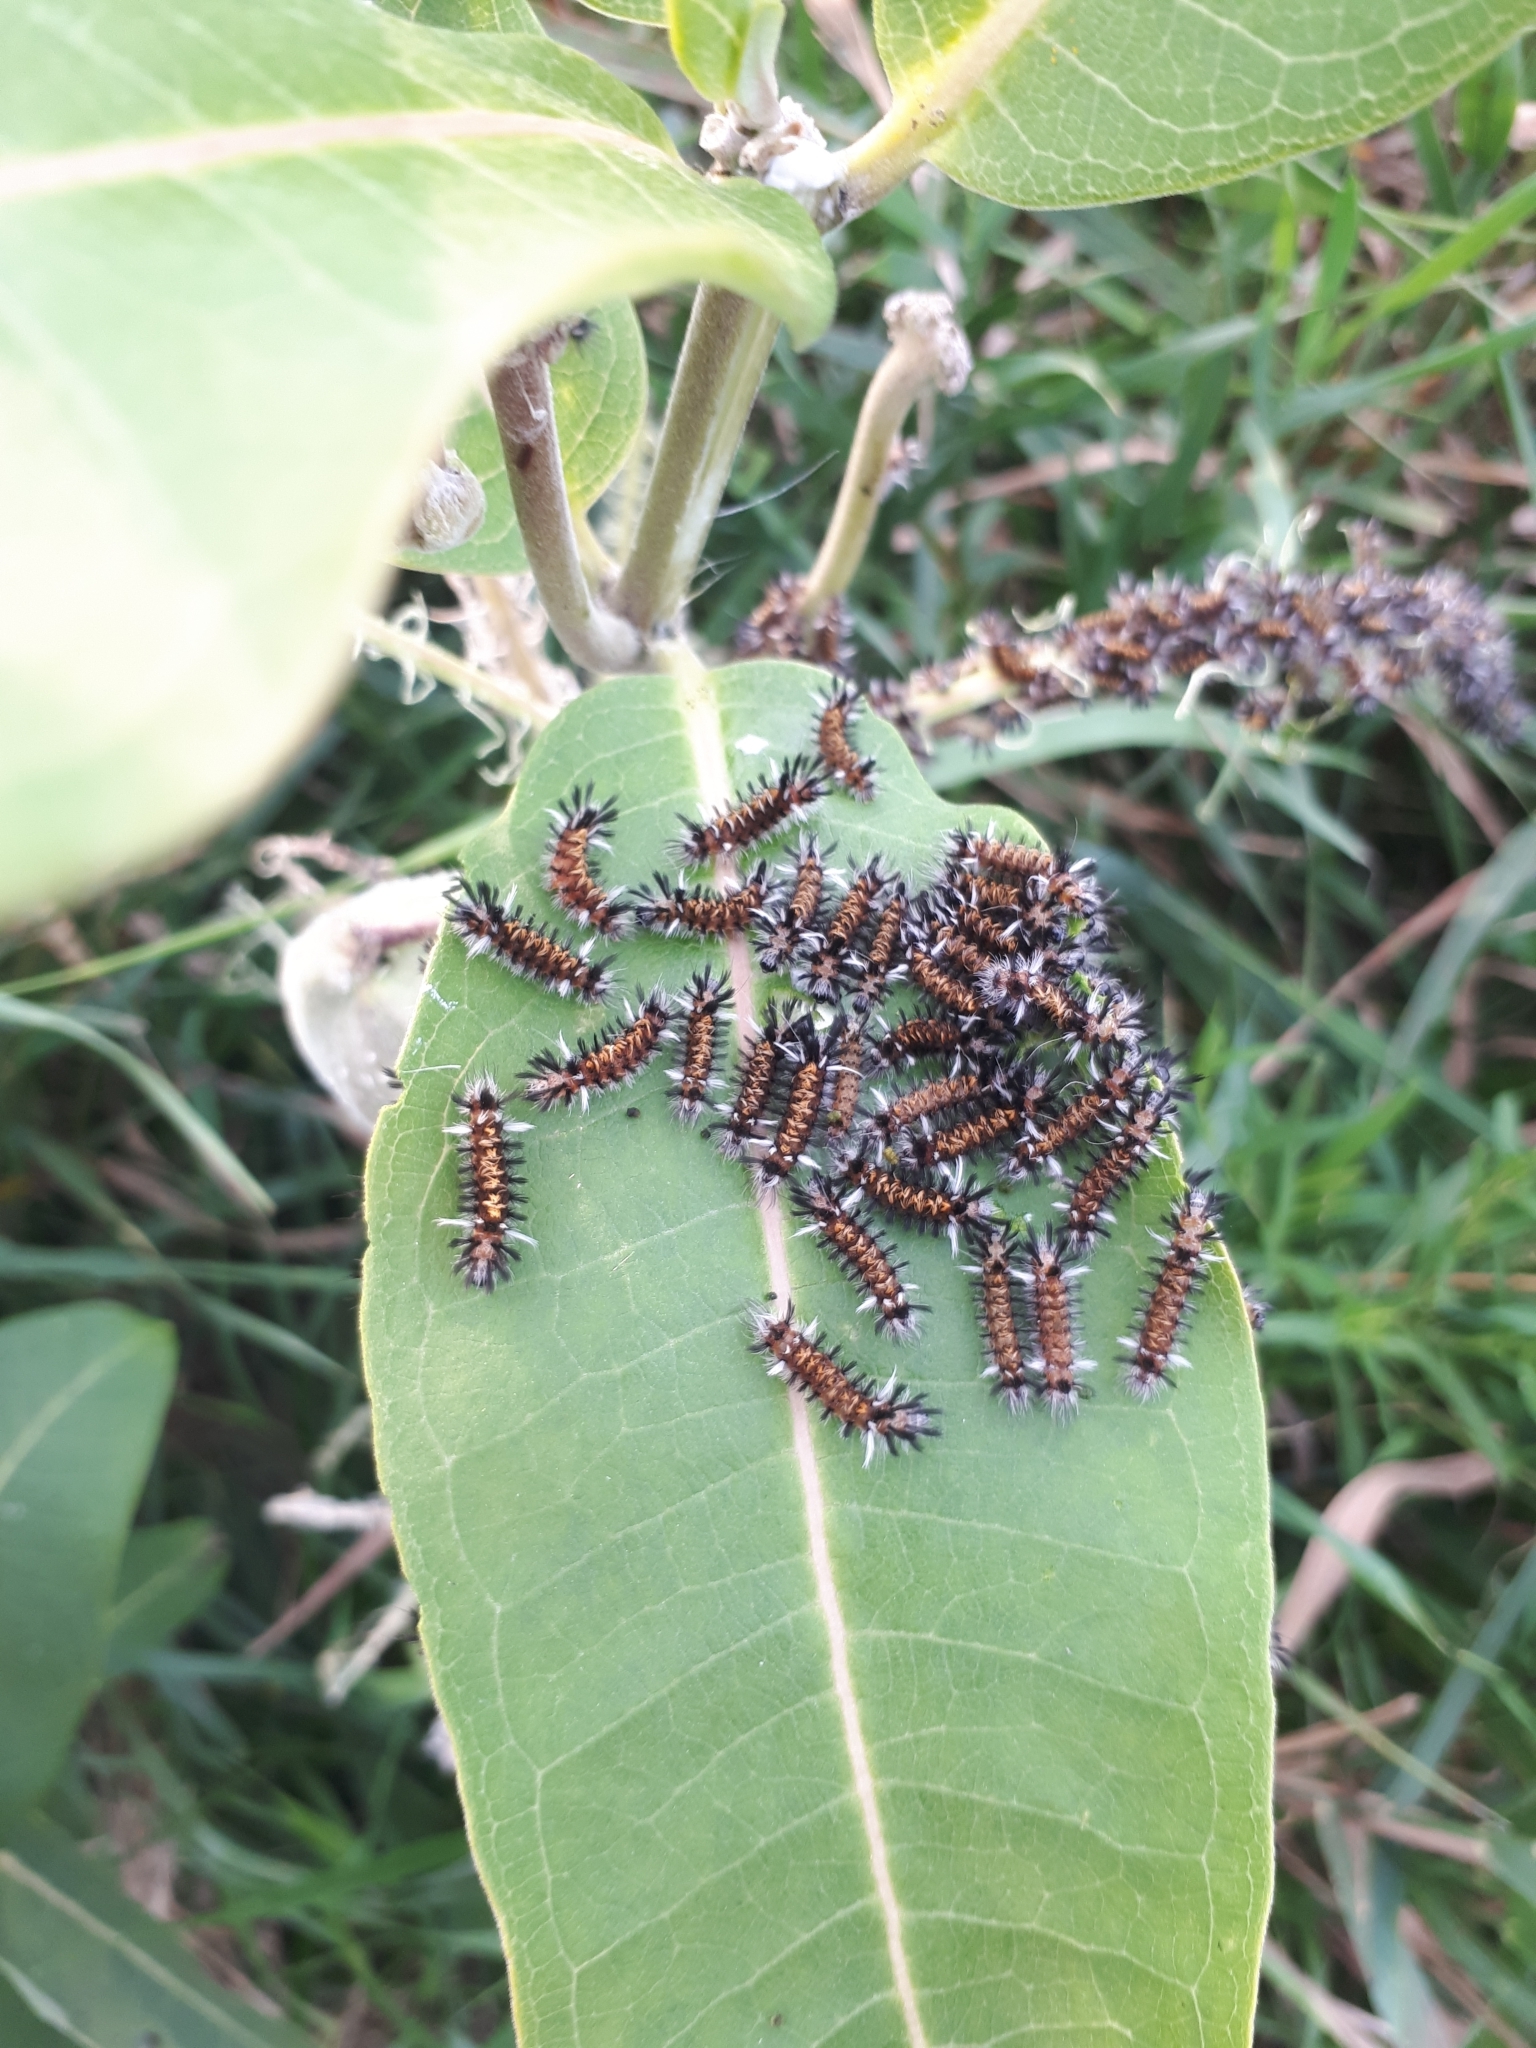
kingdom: Animalia
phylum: Arthropoda
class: Insecta
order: Lepidoptera
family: Erebidae
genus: Euchaetes
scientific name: Euchaetes egle
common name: Milkweed tussock moth
